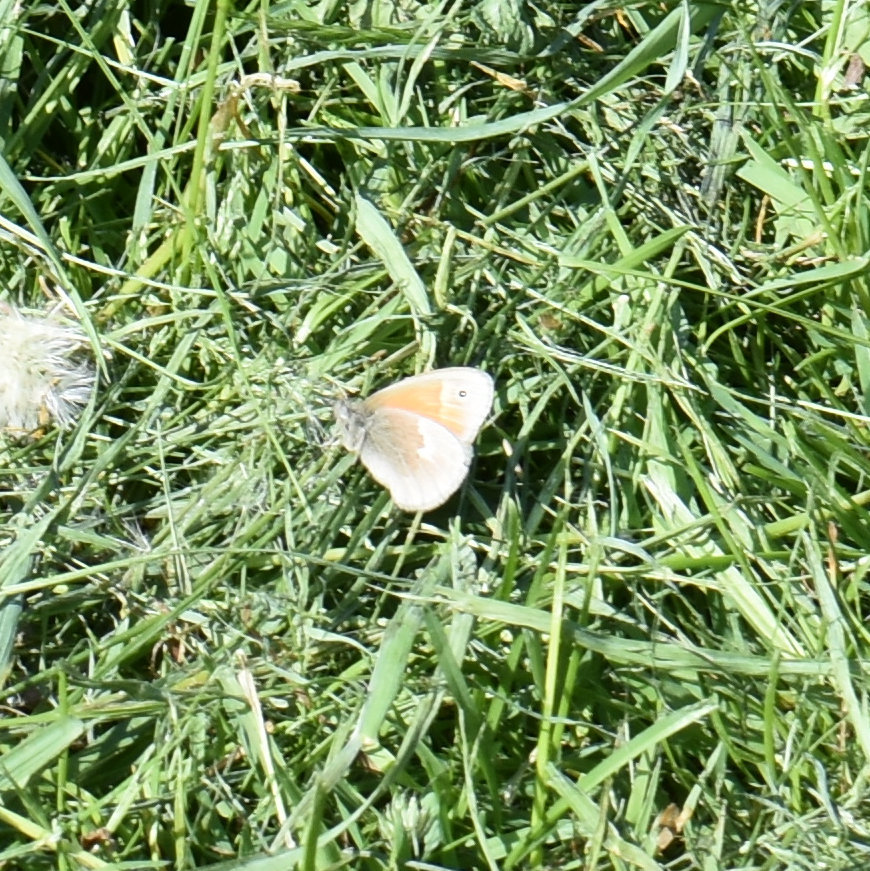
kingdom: Animalia
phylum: Arthropoda
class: Insecta
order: Lepidoptera
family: Nymphalidae
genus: Coenonympha
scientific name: Coenonympha california
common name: Common ringlet
